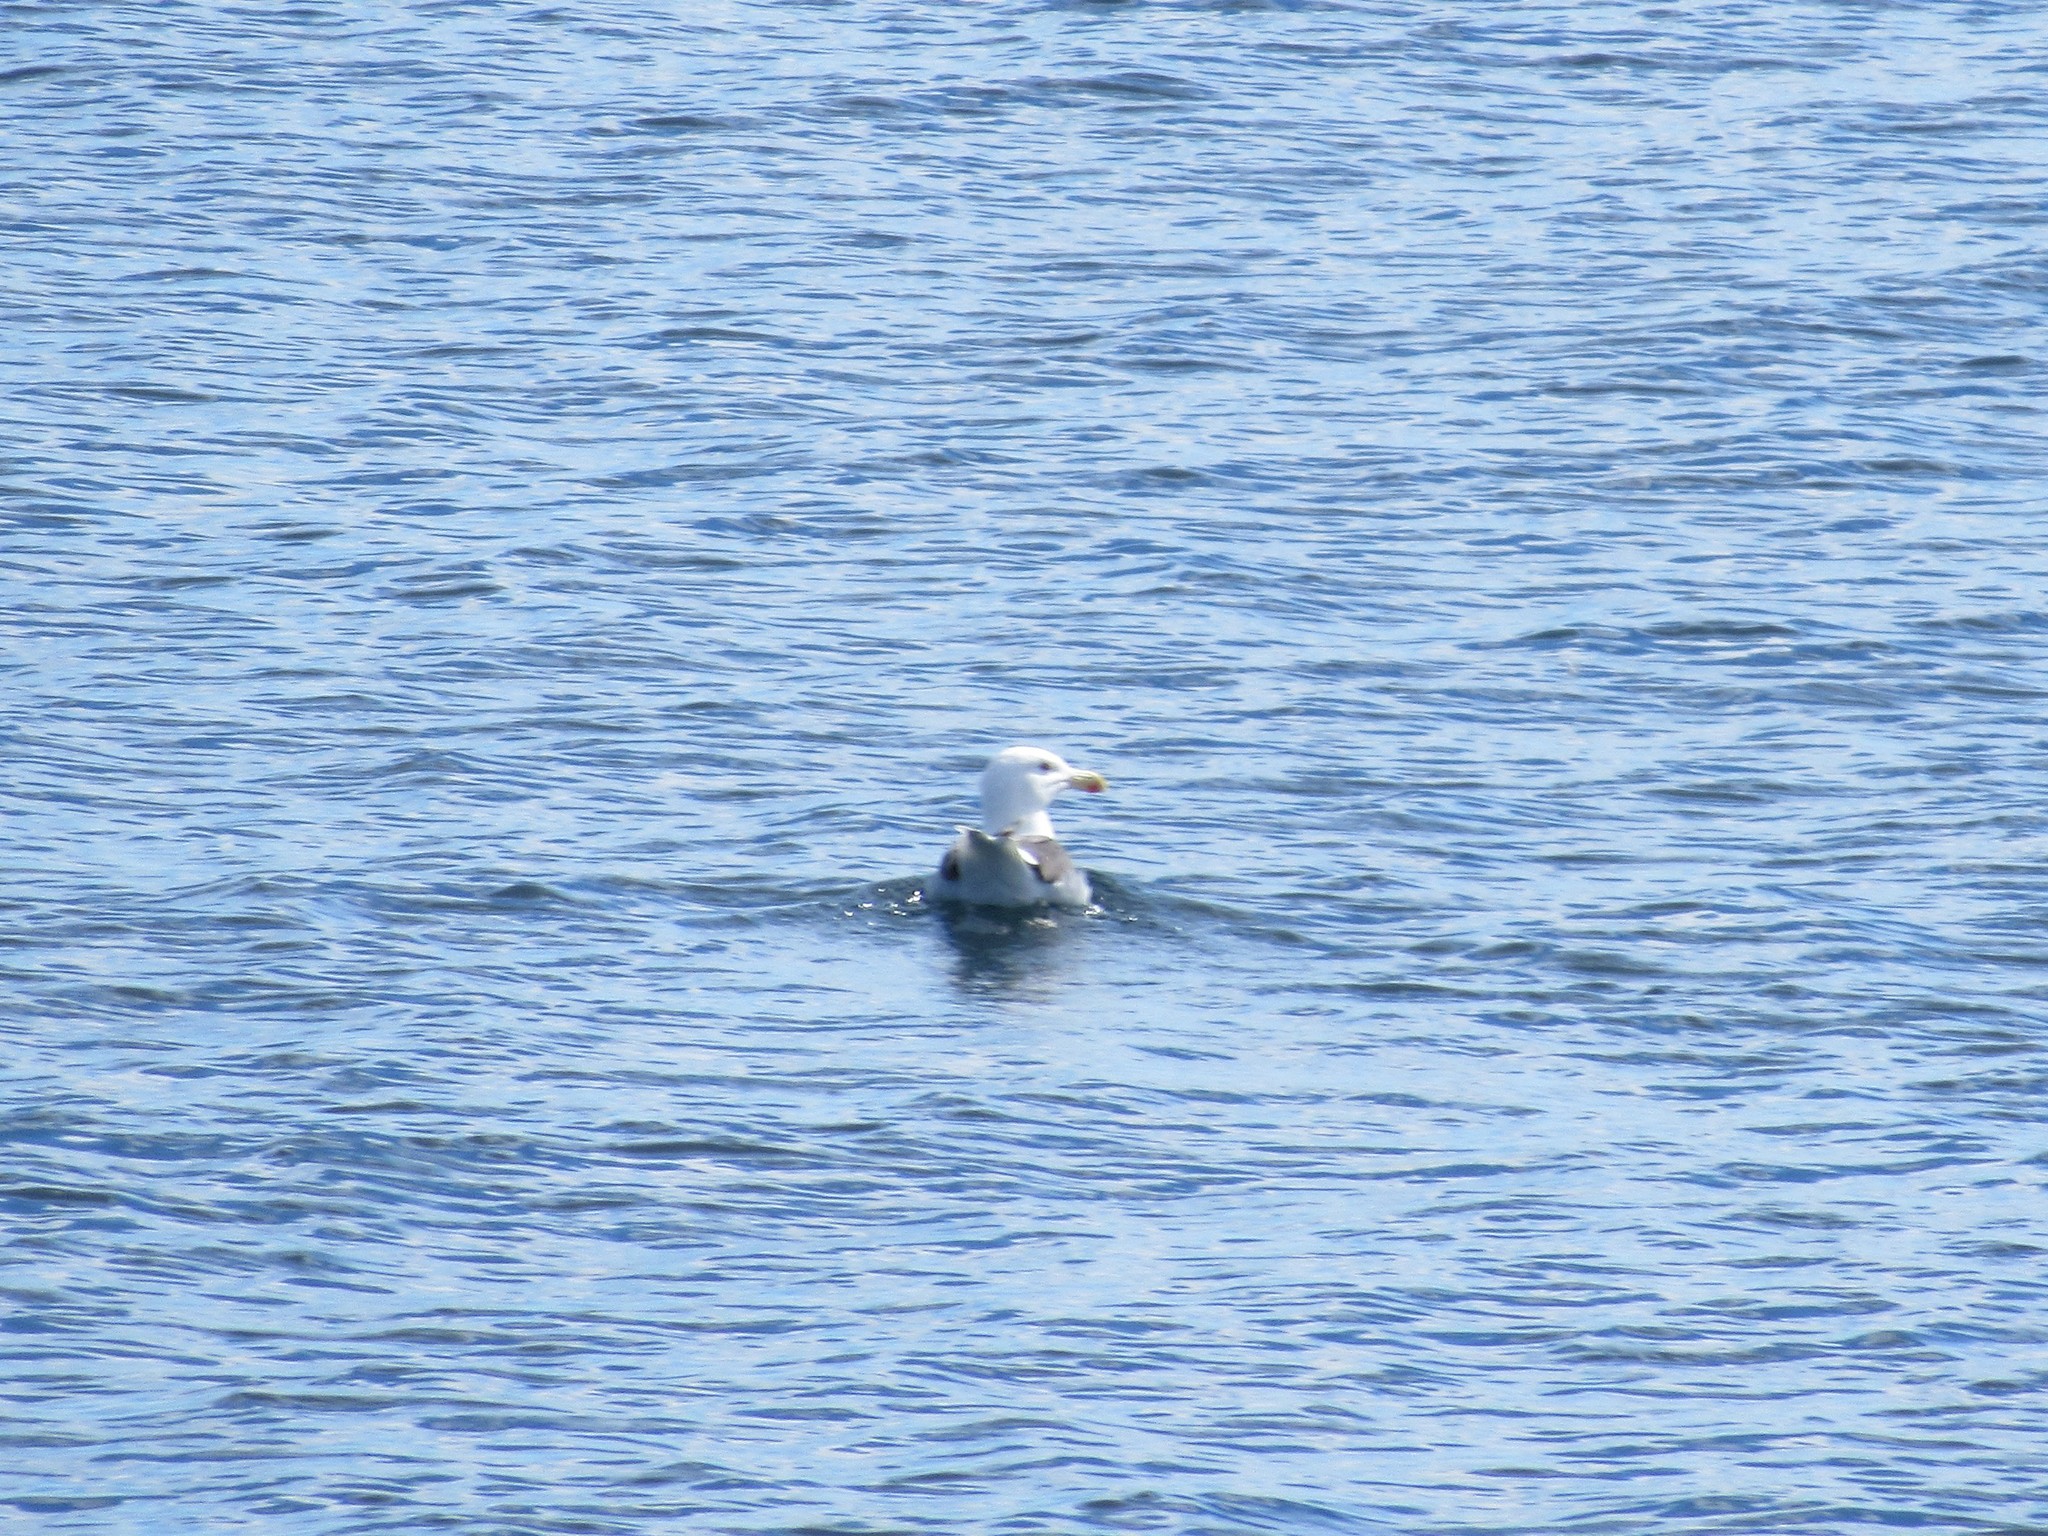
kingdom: Animalia
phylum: Chordata
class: Aves
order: Charadriiformes
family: Laridae
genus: Larus
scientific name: Larus marinus
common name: Great black-backed gull
